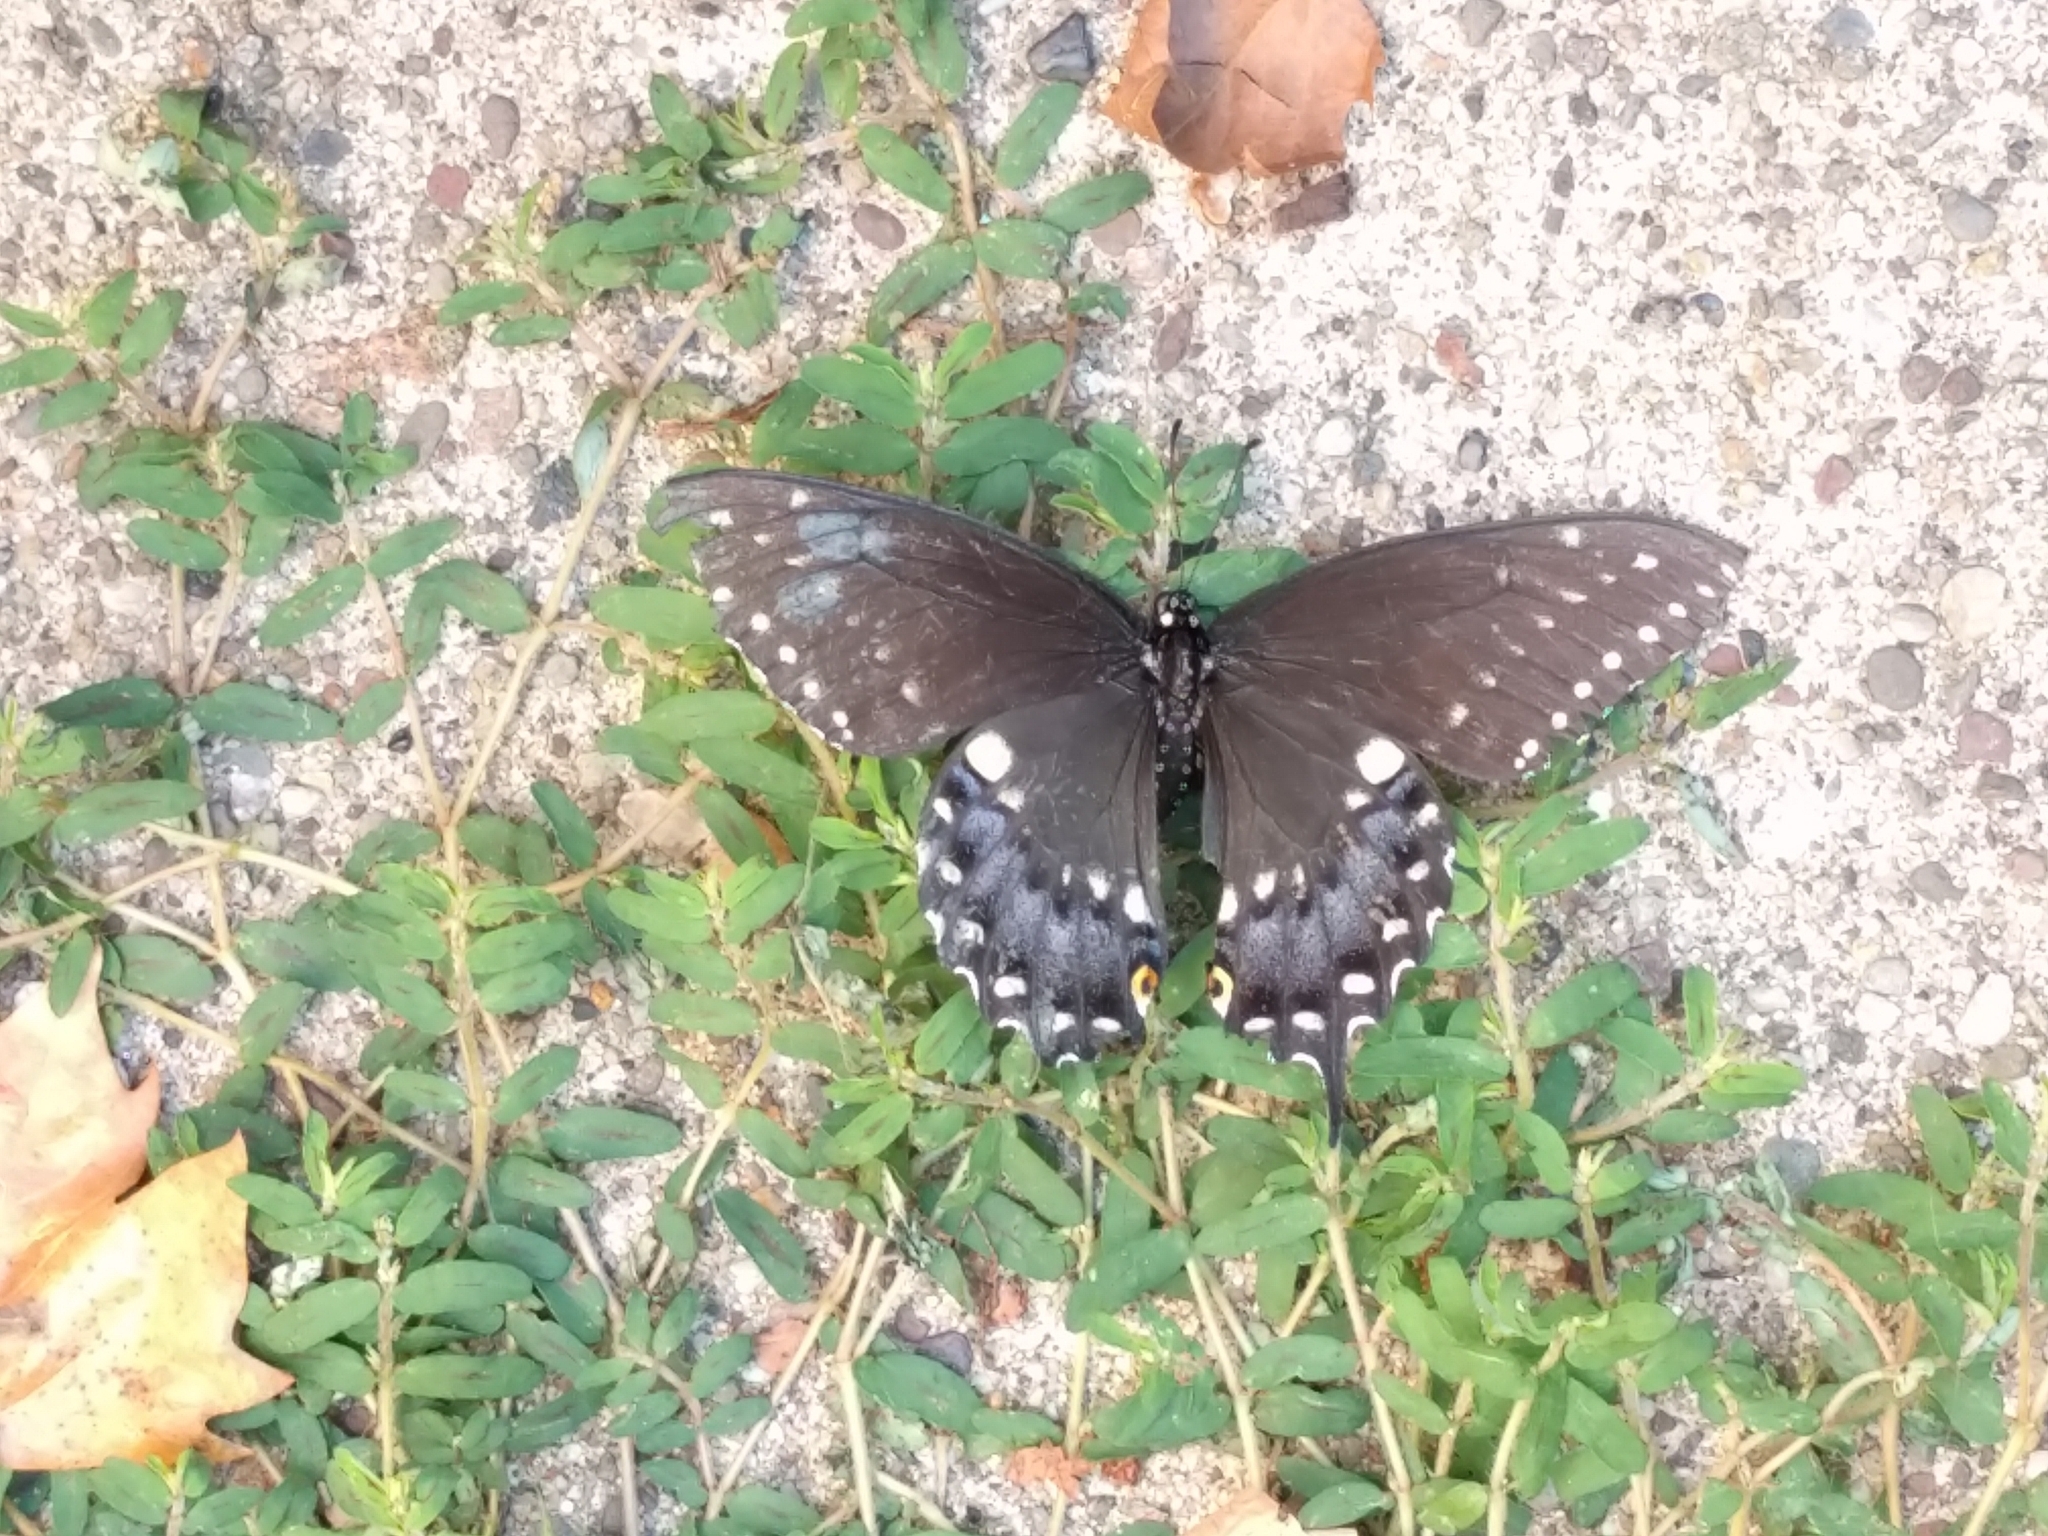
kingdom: Animalia
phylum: Arthropoda
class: Insecta
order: Lepidoptera
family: Papilionidae
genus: Papilio
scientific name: Papilio polyxenes
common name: Black swallowtail
